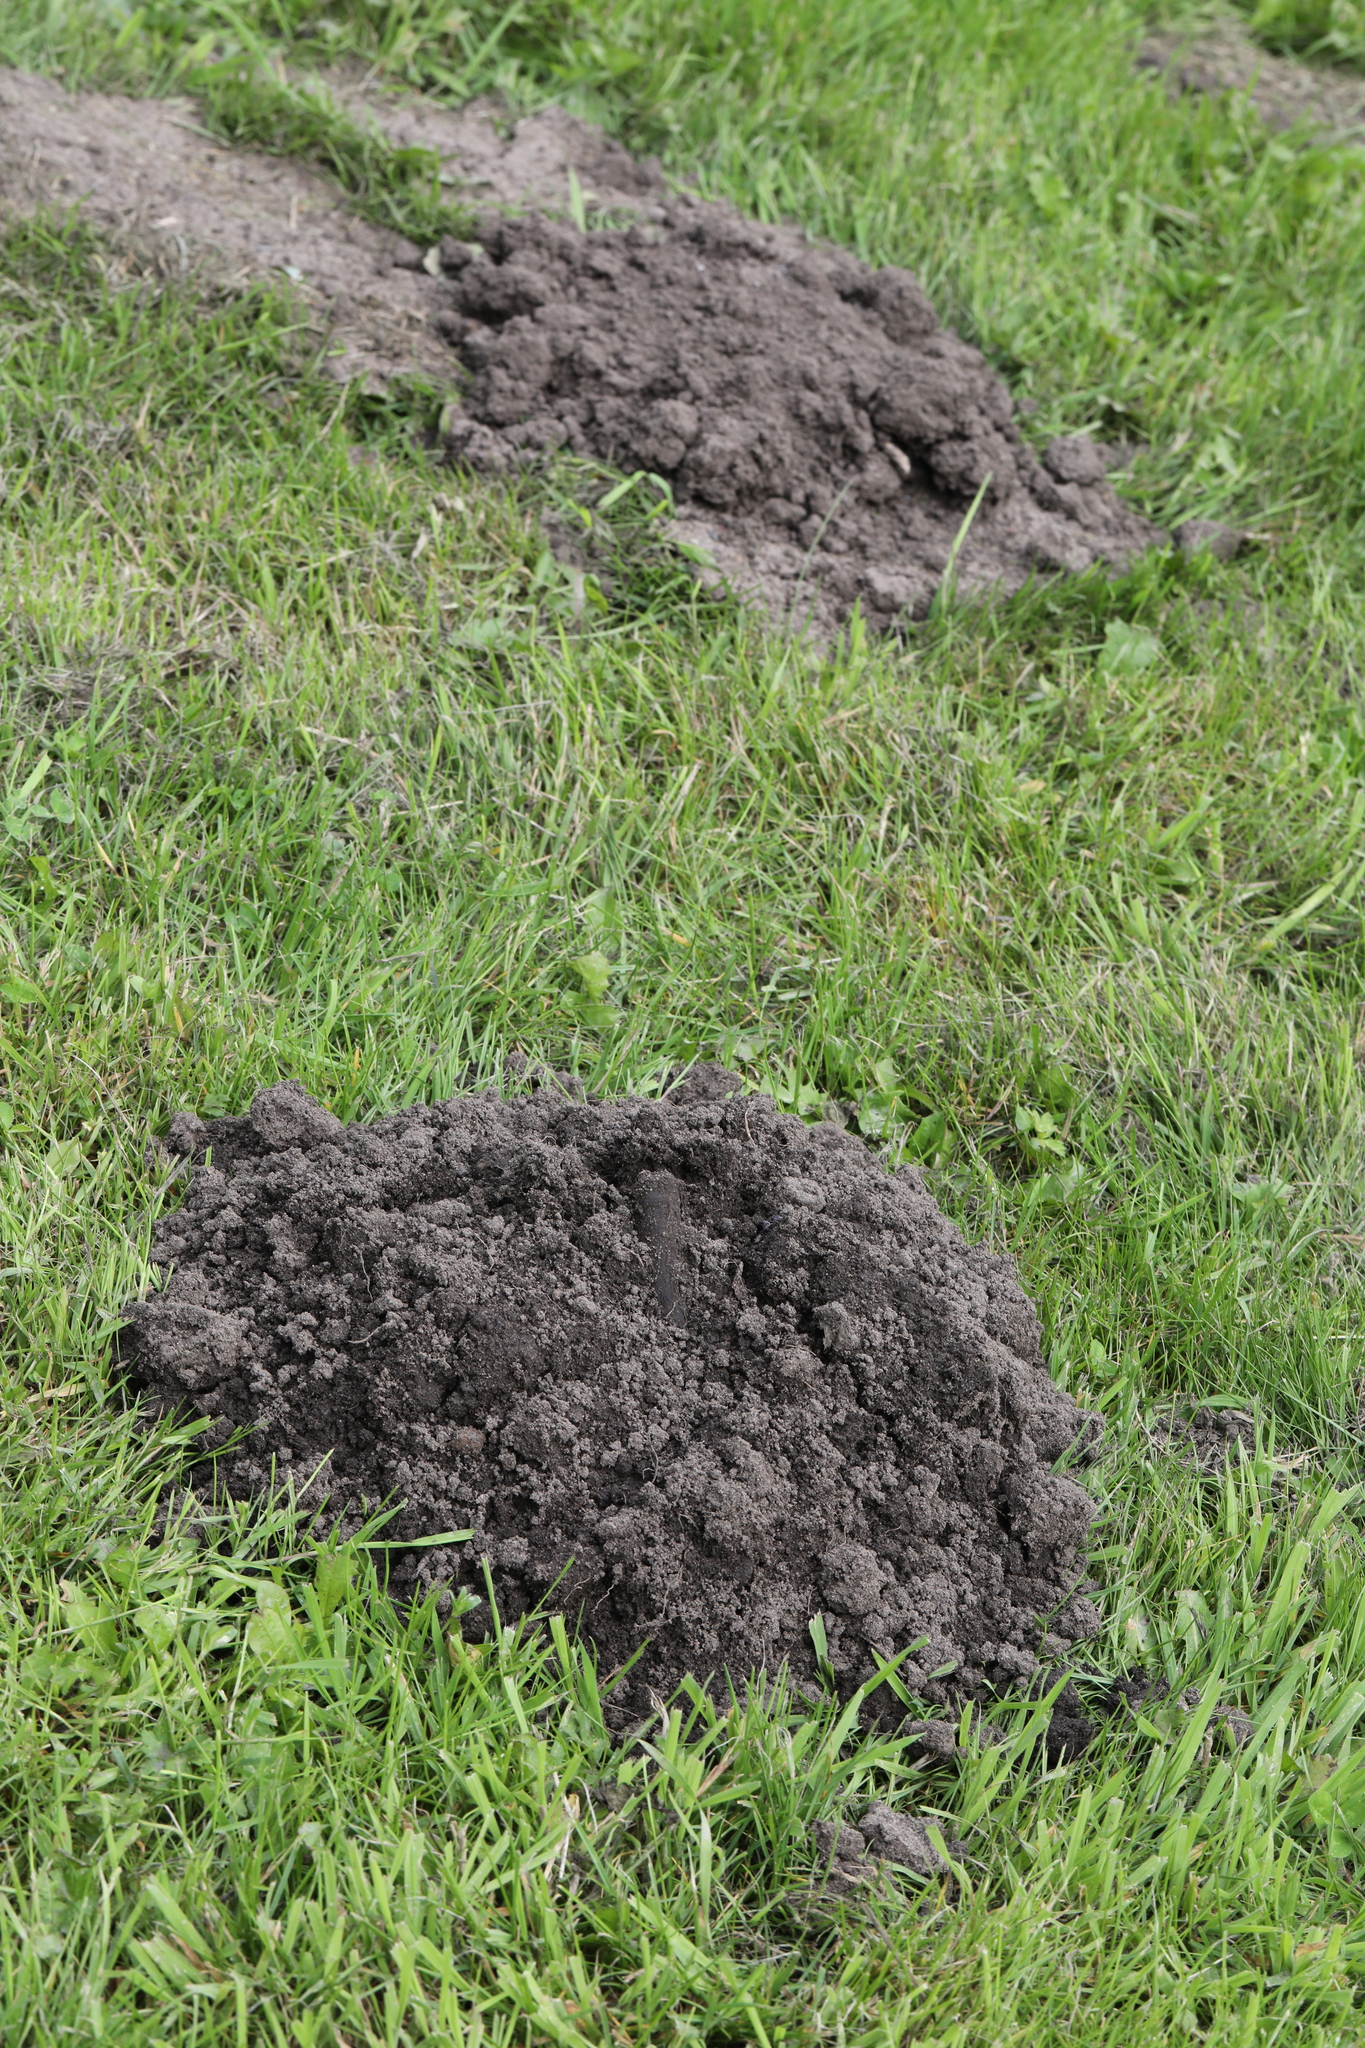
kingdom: Animalia
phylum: Chordata
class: Mammalia
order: Soricomorpha
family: Talpidae
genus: Talpa
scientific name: Talpa europaea
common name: European mole
